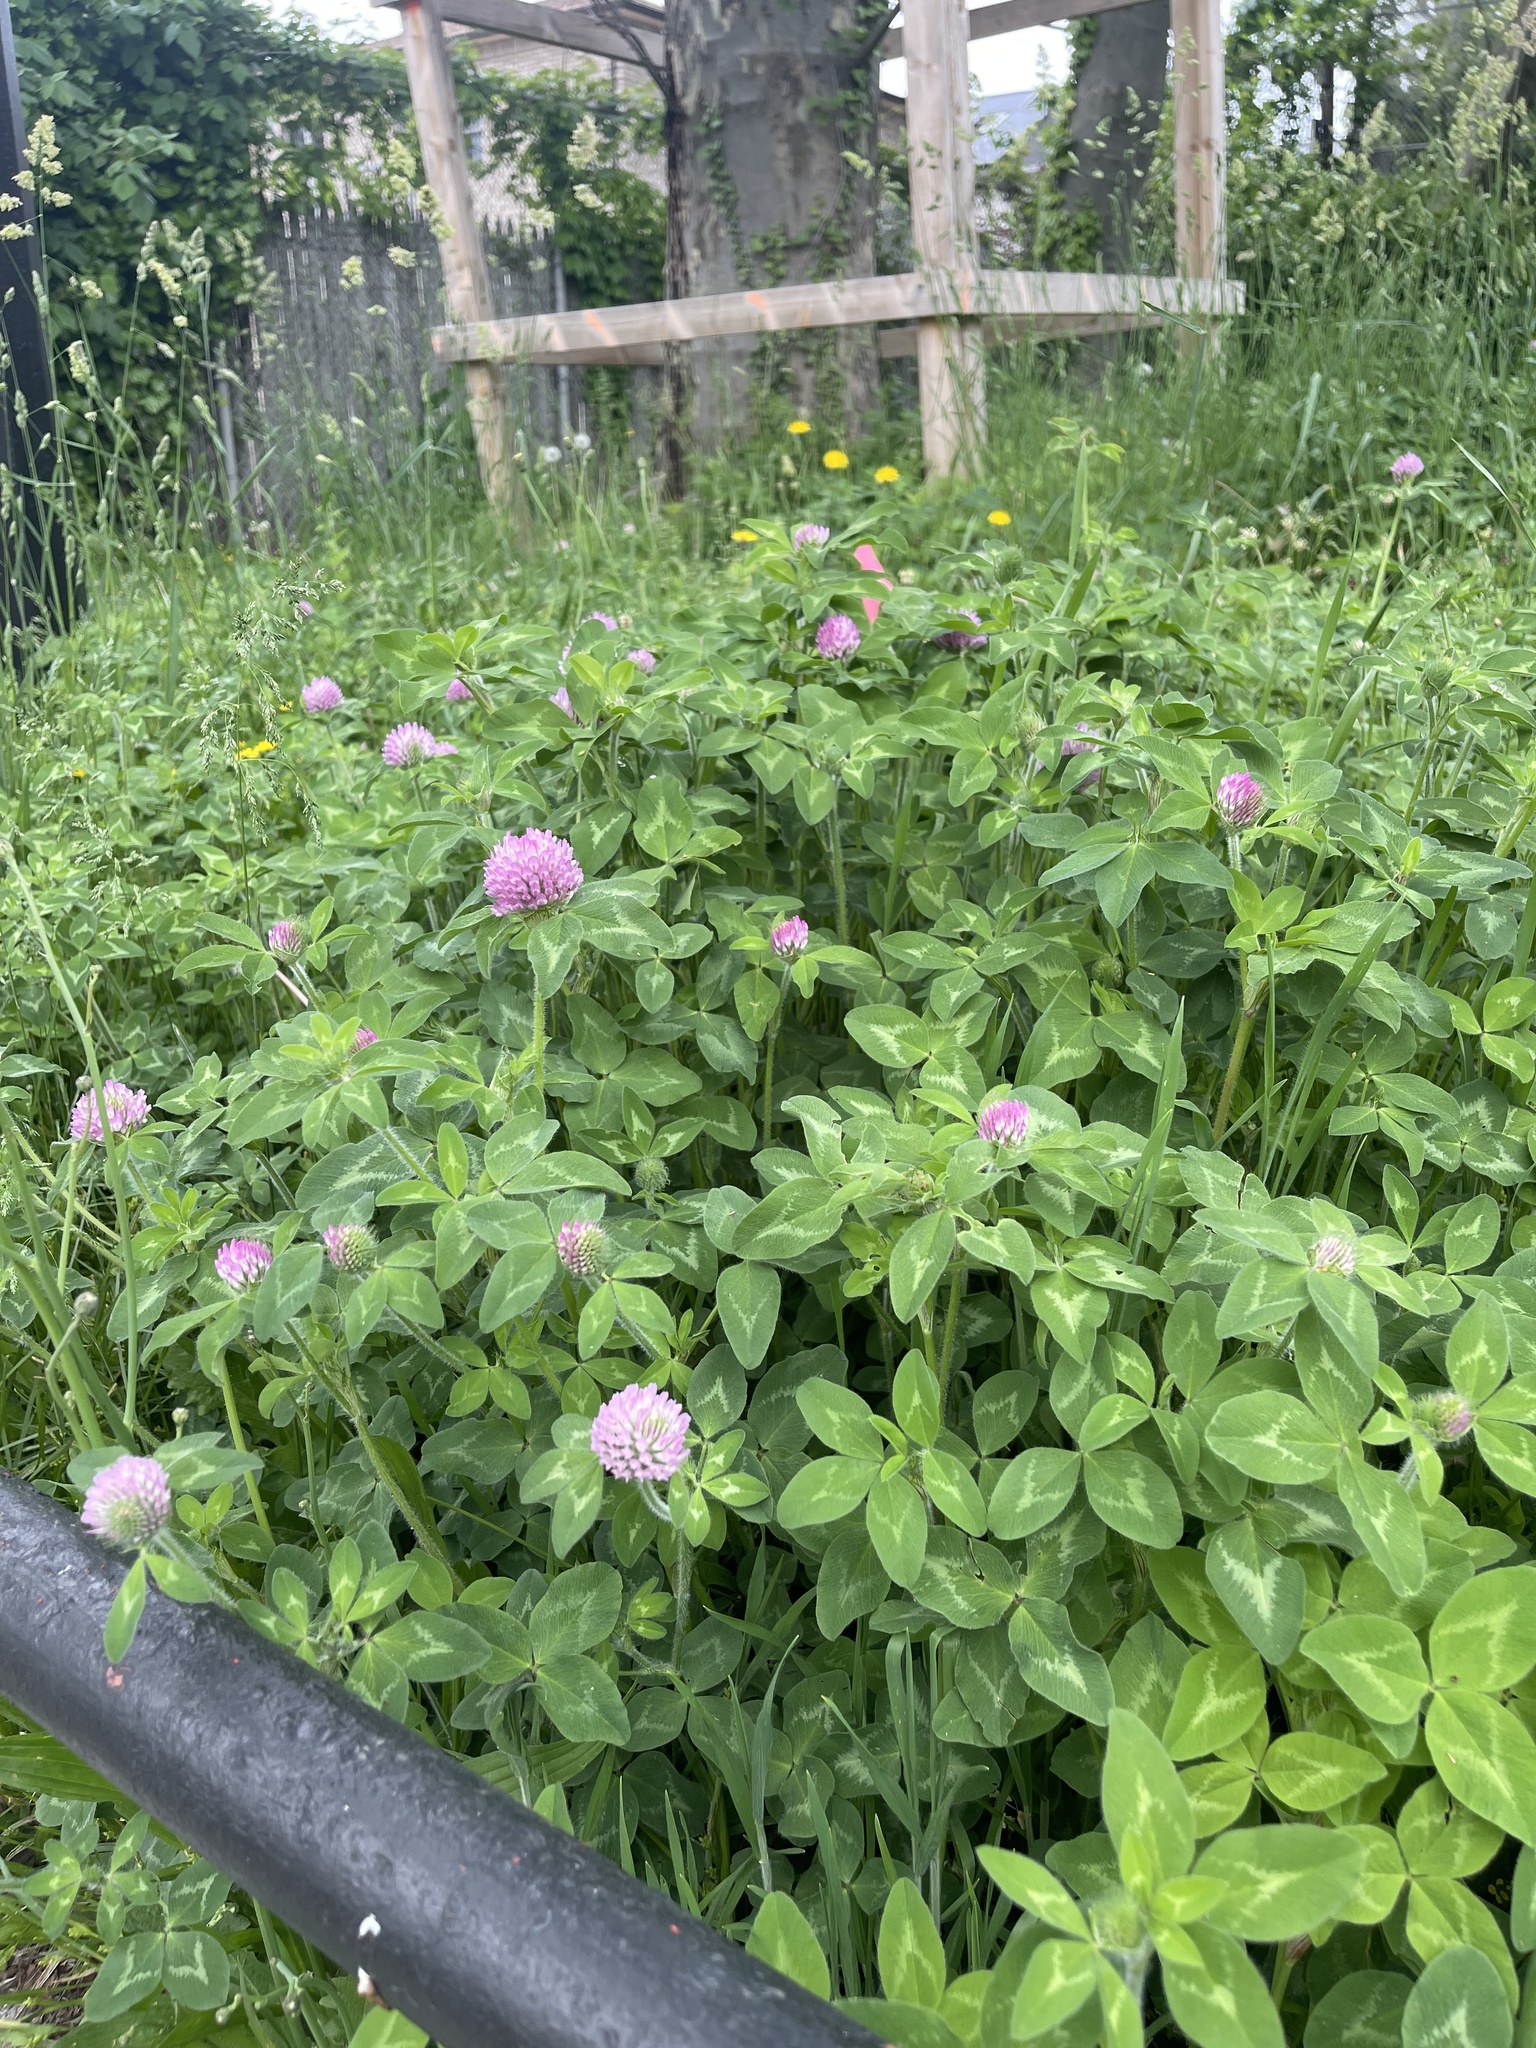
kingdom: Plantae
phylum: Tracheophyta
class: Magnoliopsida
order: Fabales
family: Fabaceae
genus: Trifolium
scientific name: Trifolium pratense
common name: Red clover
